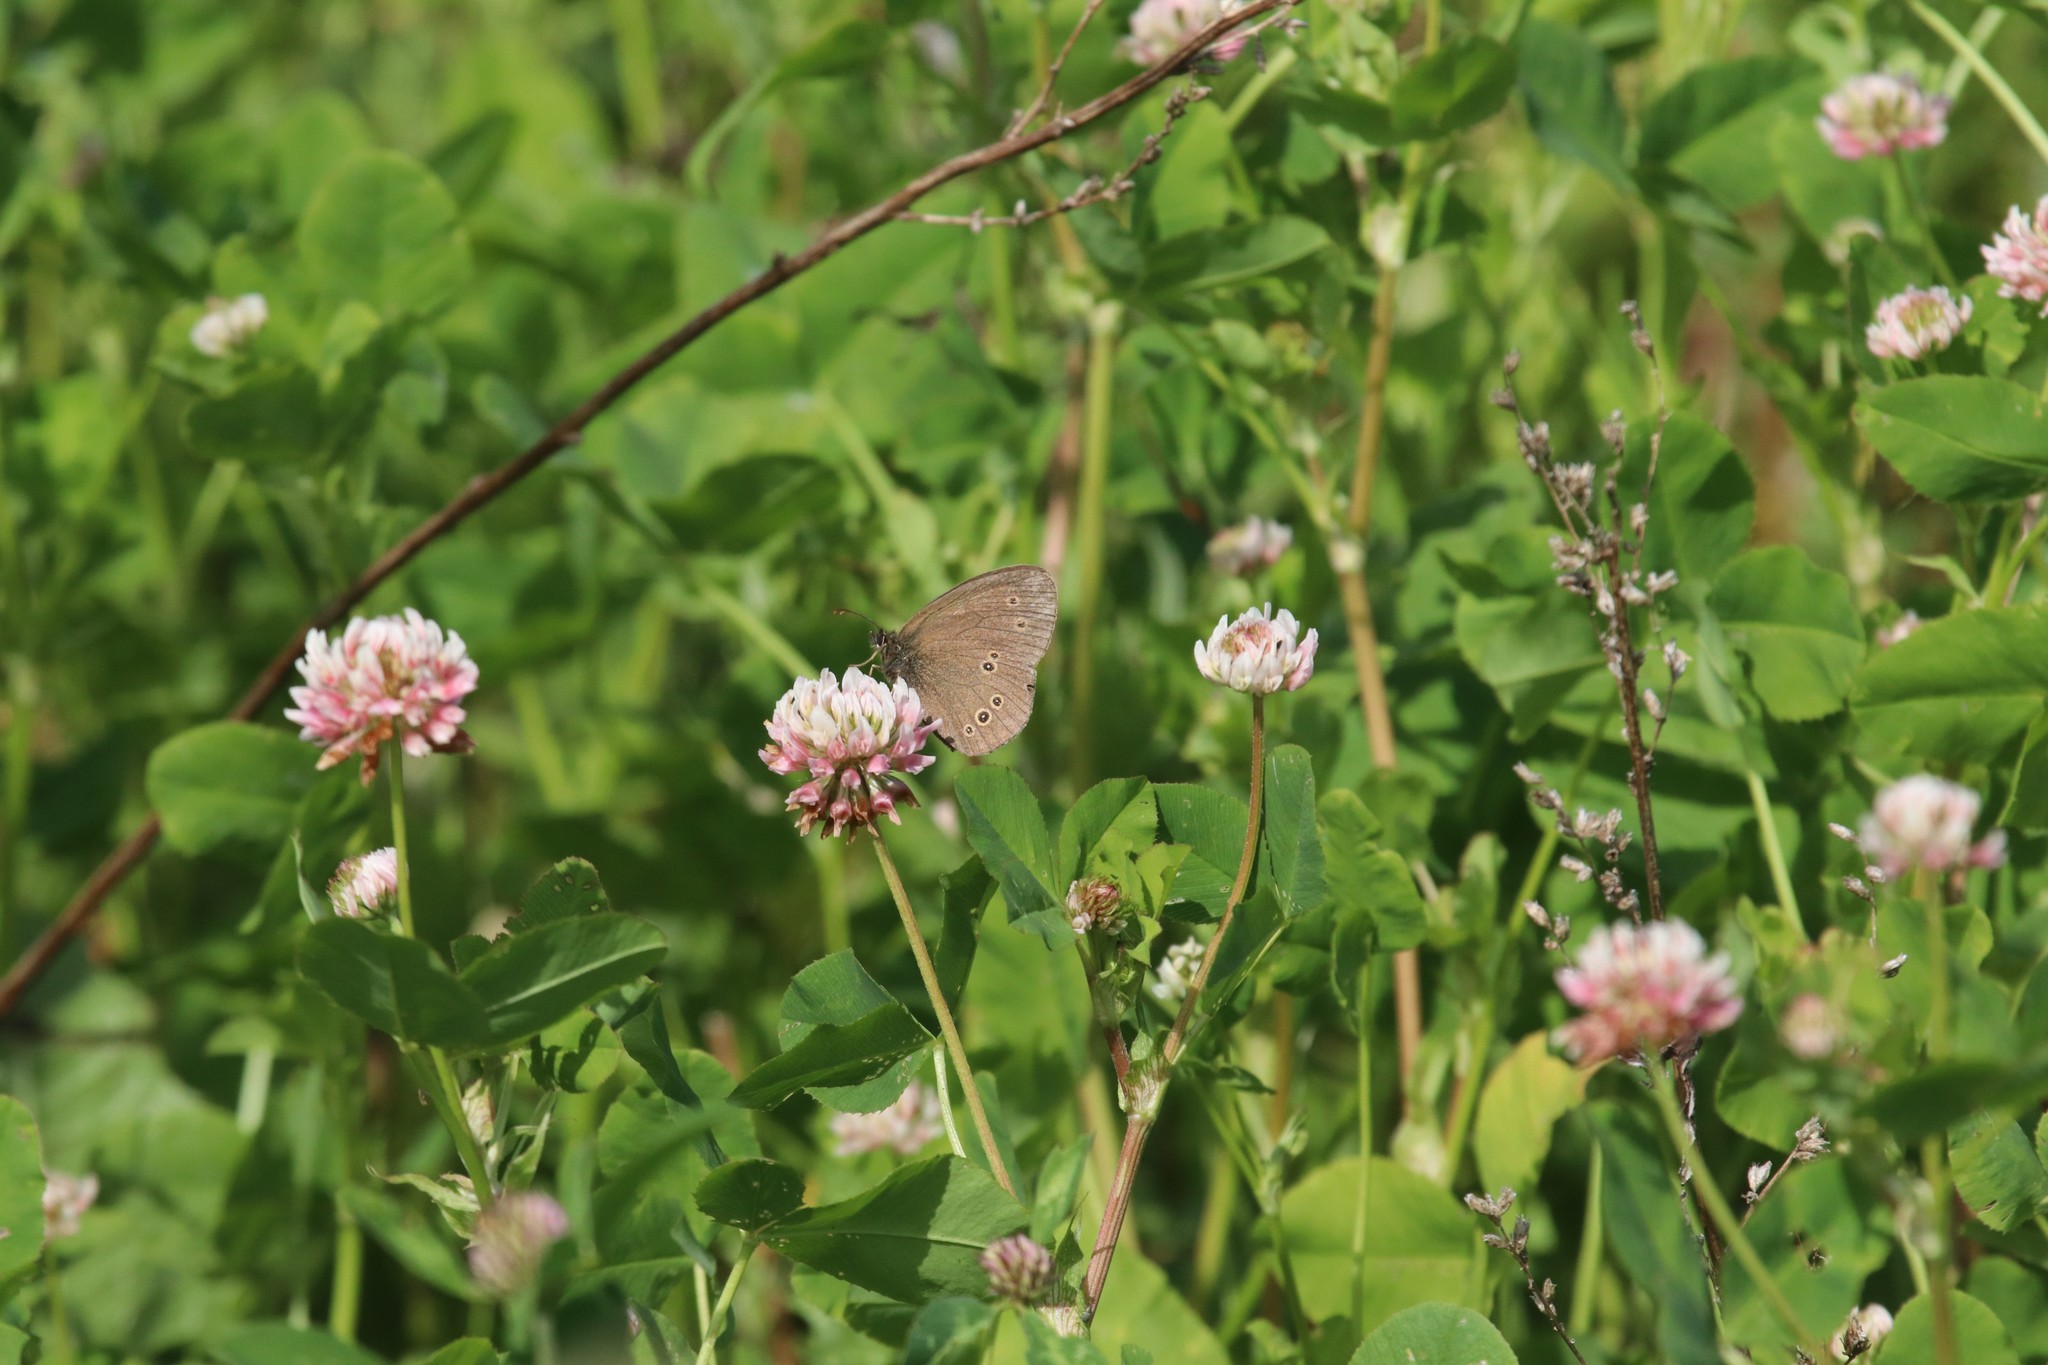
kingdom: Plantae
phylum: Tracheophyta
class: Magnoliopsida
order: Fabales
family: Fabaceae
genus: Trifolium
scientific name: Trifolium hybridum
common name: Alsike clover
